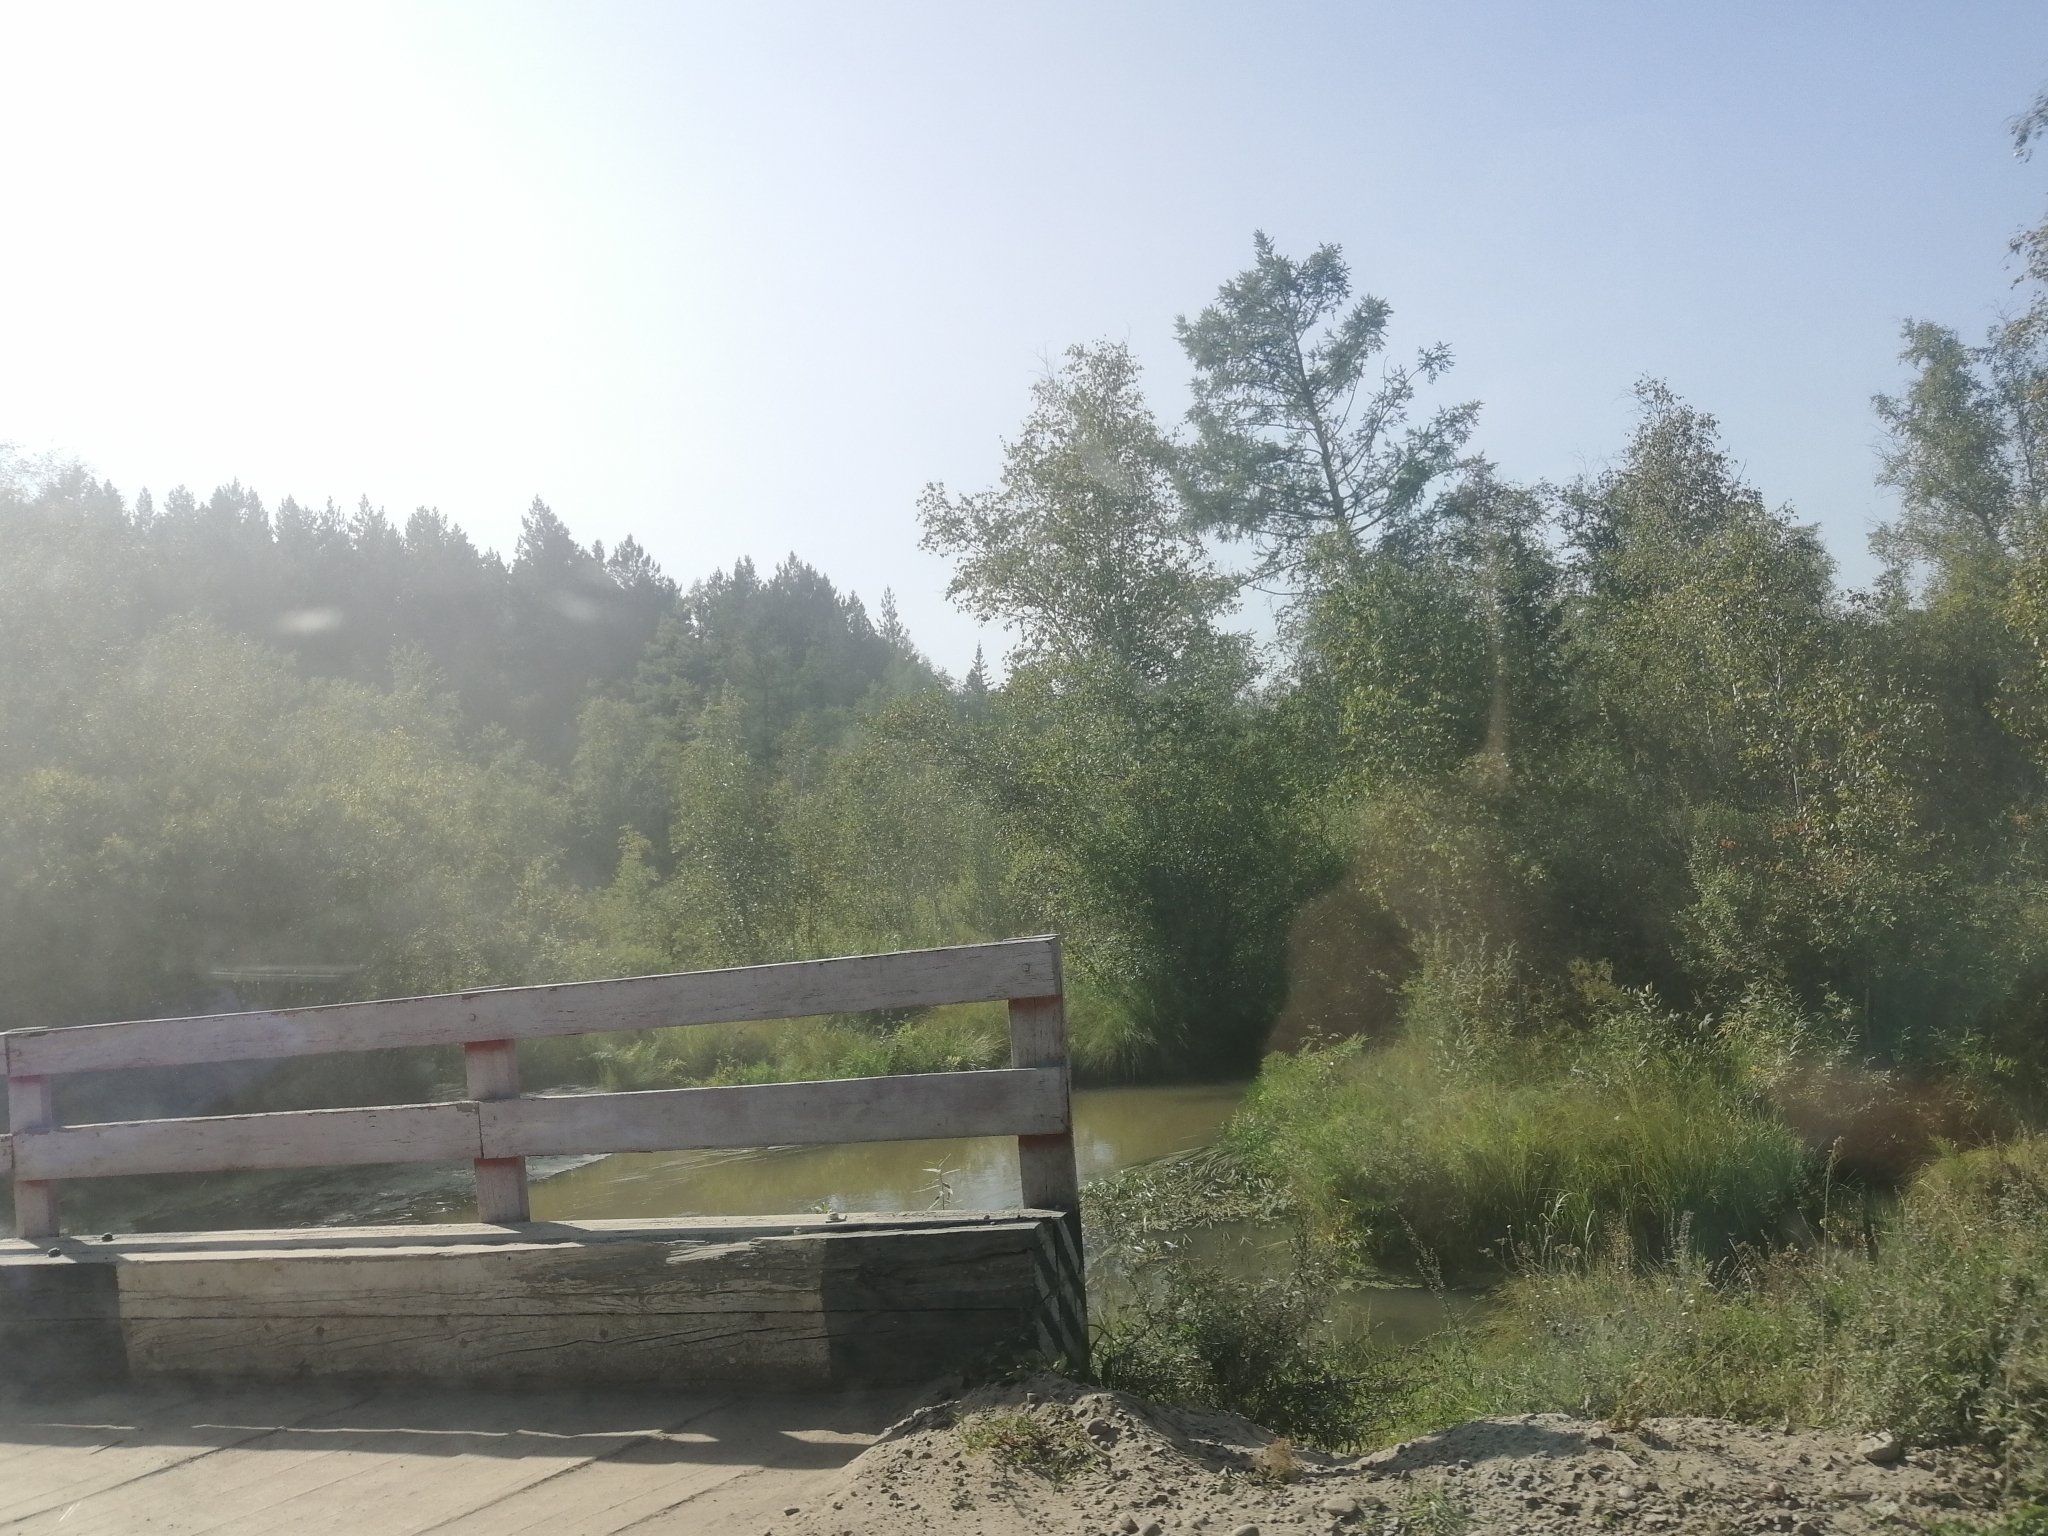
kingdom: Plantae
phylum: Tracheophyta
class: Pinopsida
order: Pinales
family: Pinaceae
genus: Larix
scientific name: Larix sibirica
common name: Siberian larch
